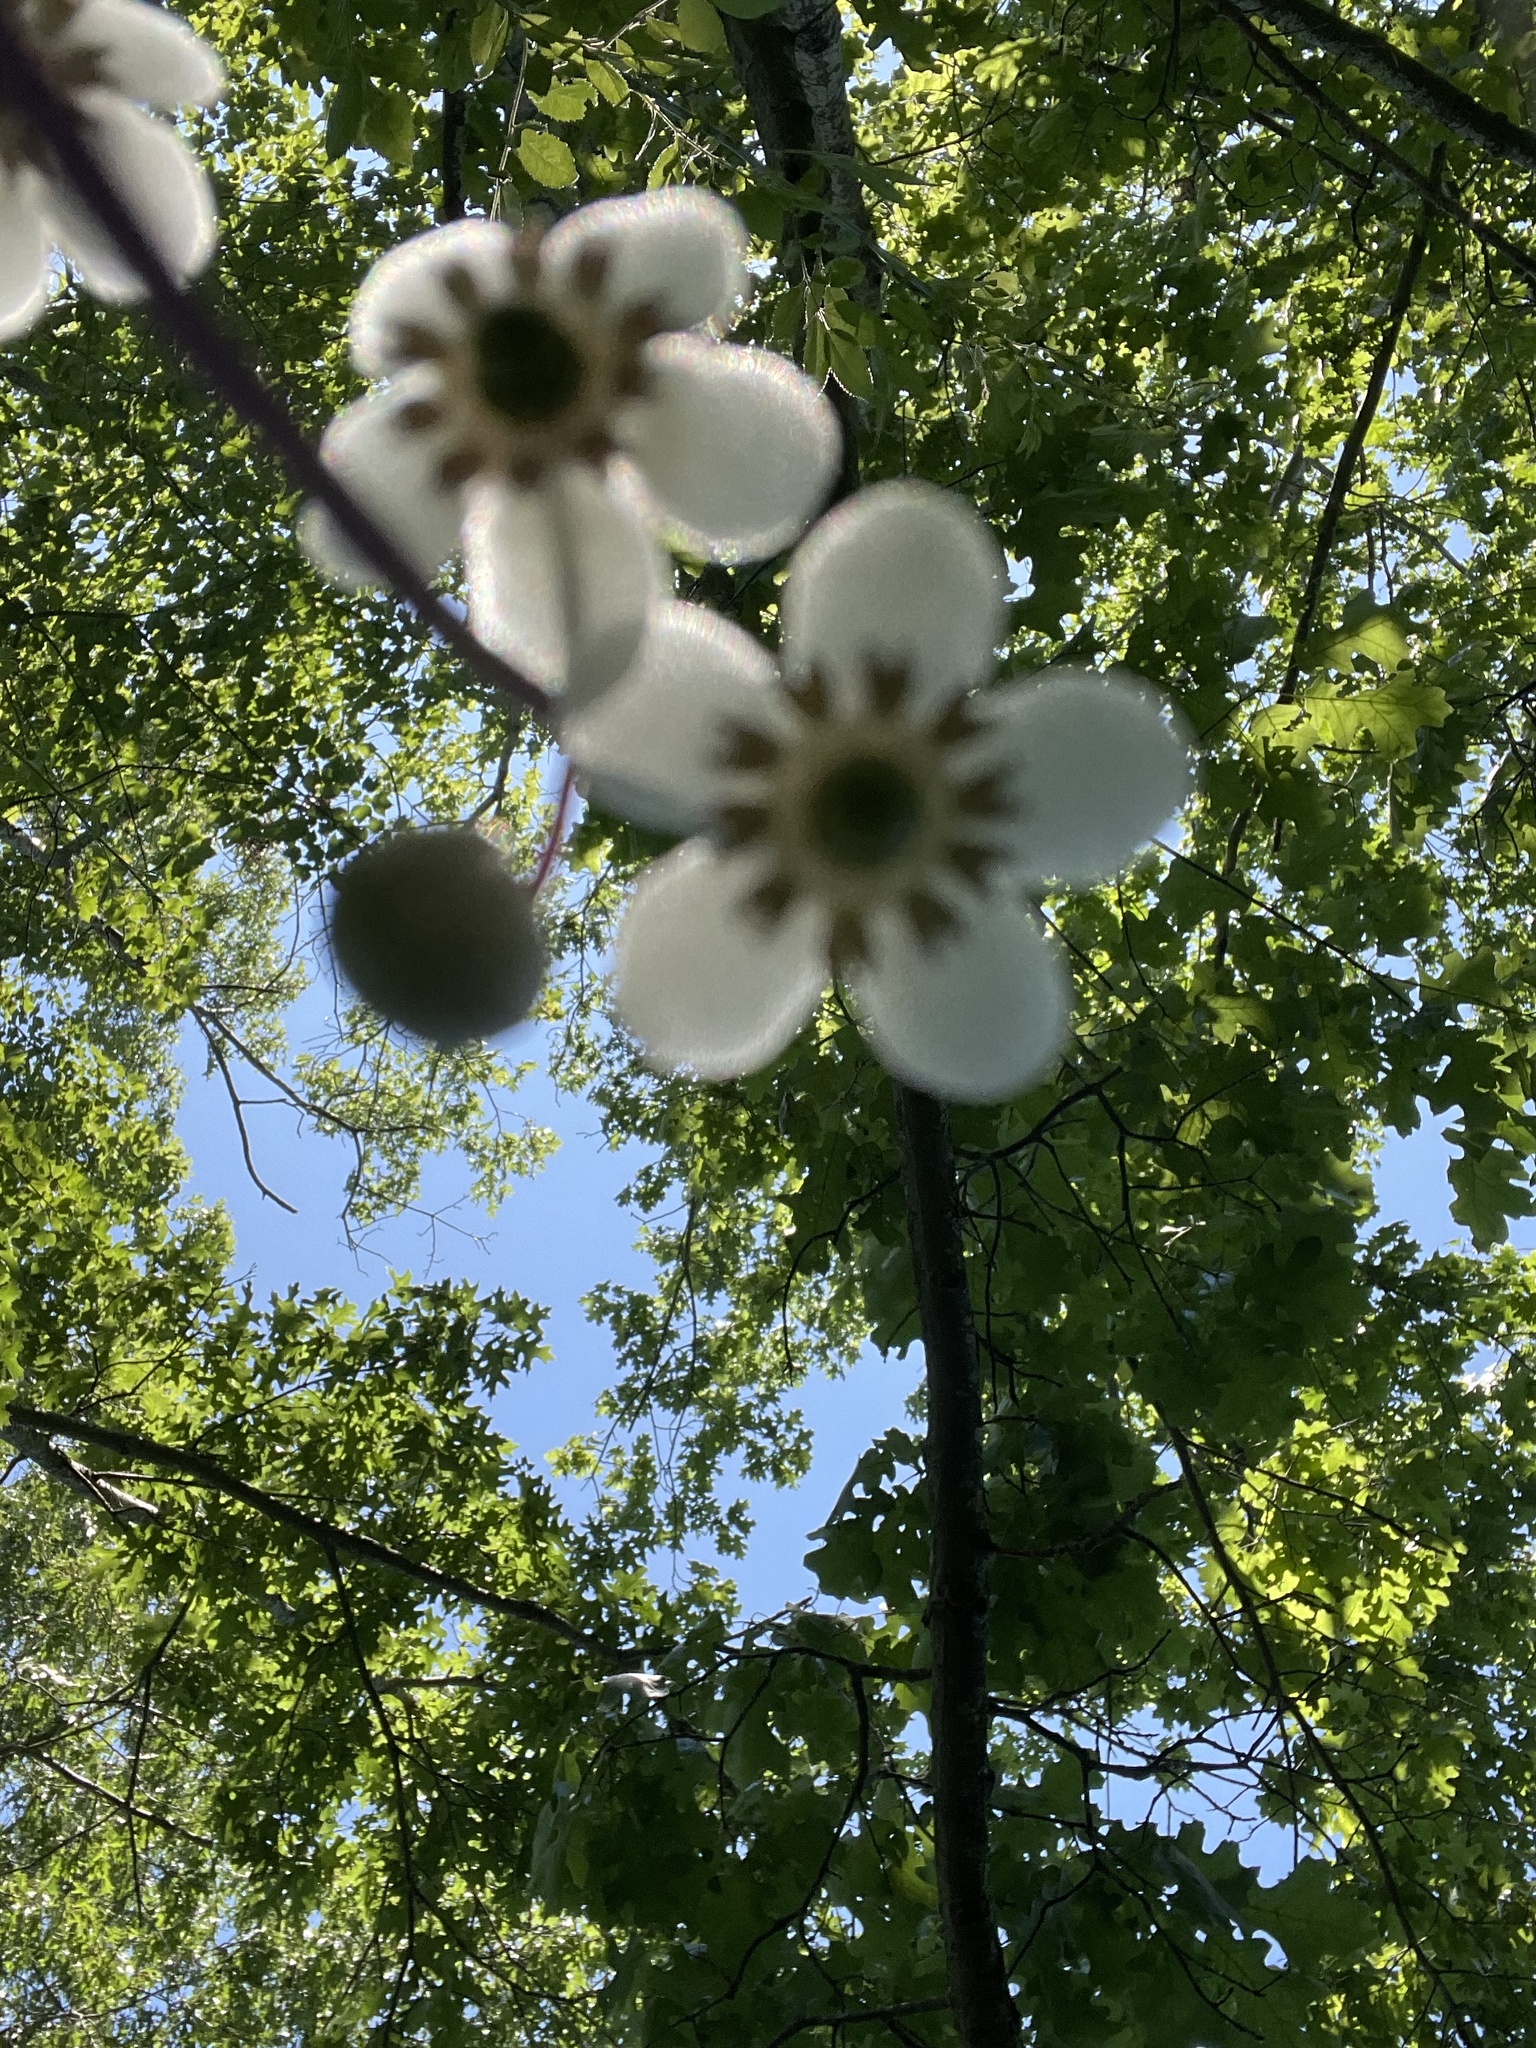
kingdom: Plantae
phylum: Tracheophyta
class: Magnoliopsida
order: Ericales
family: Ericaceae
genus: Chimaphila
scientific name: Chimaphila maculata
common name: Spotted pipsissewa
